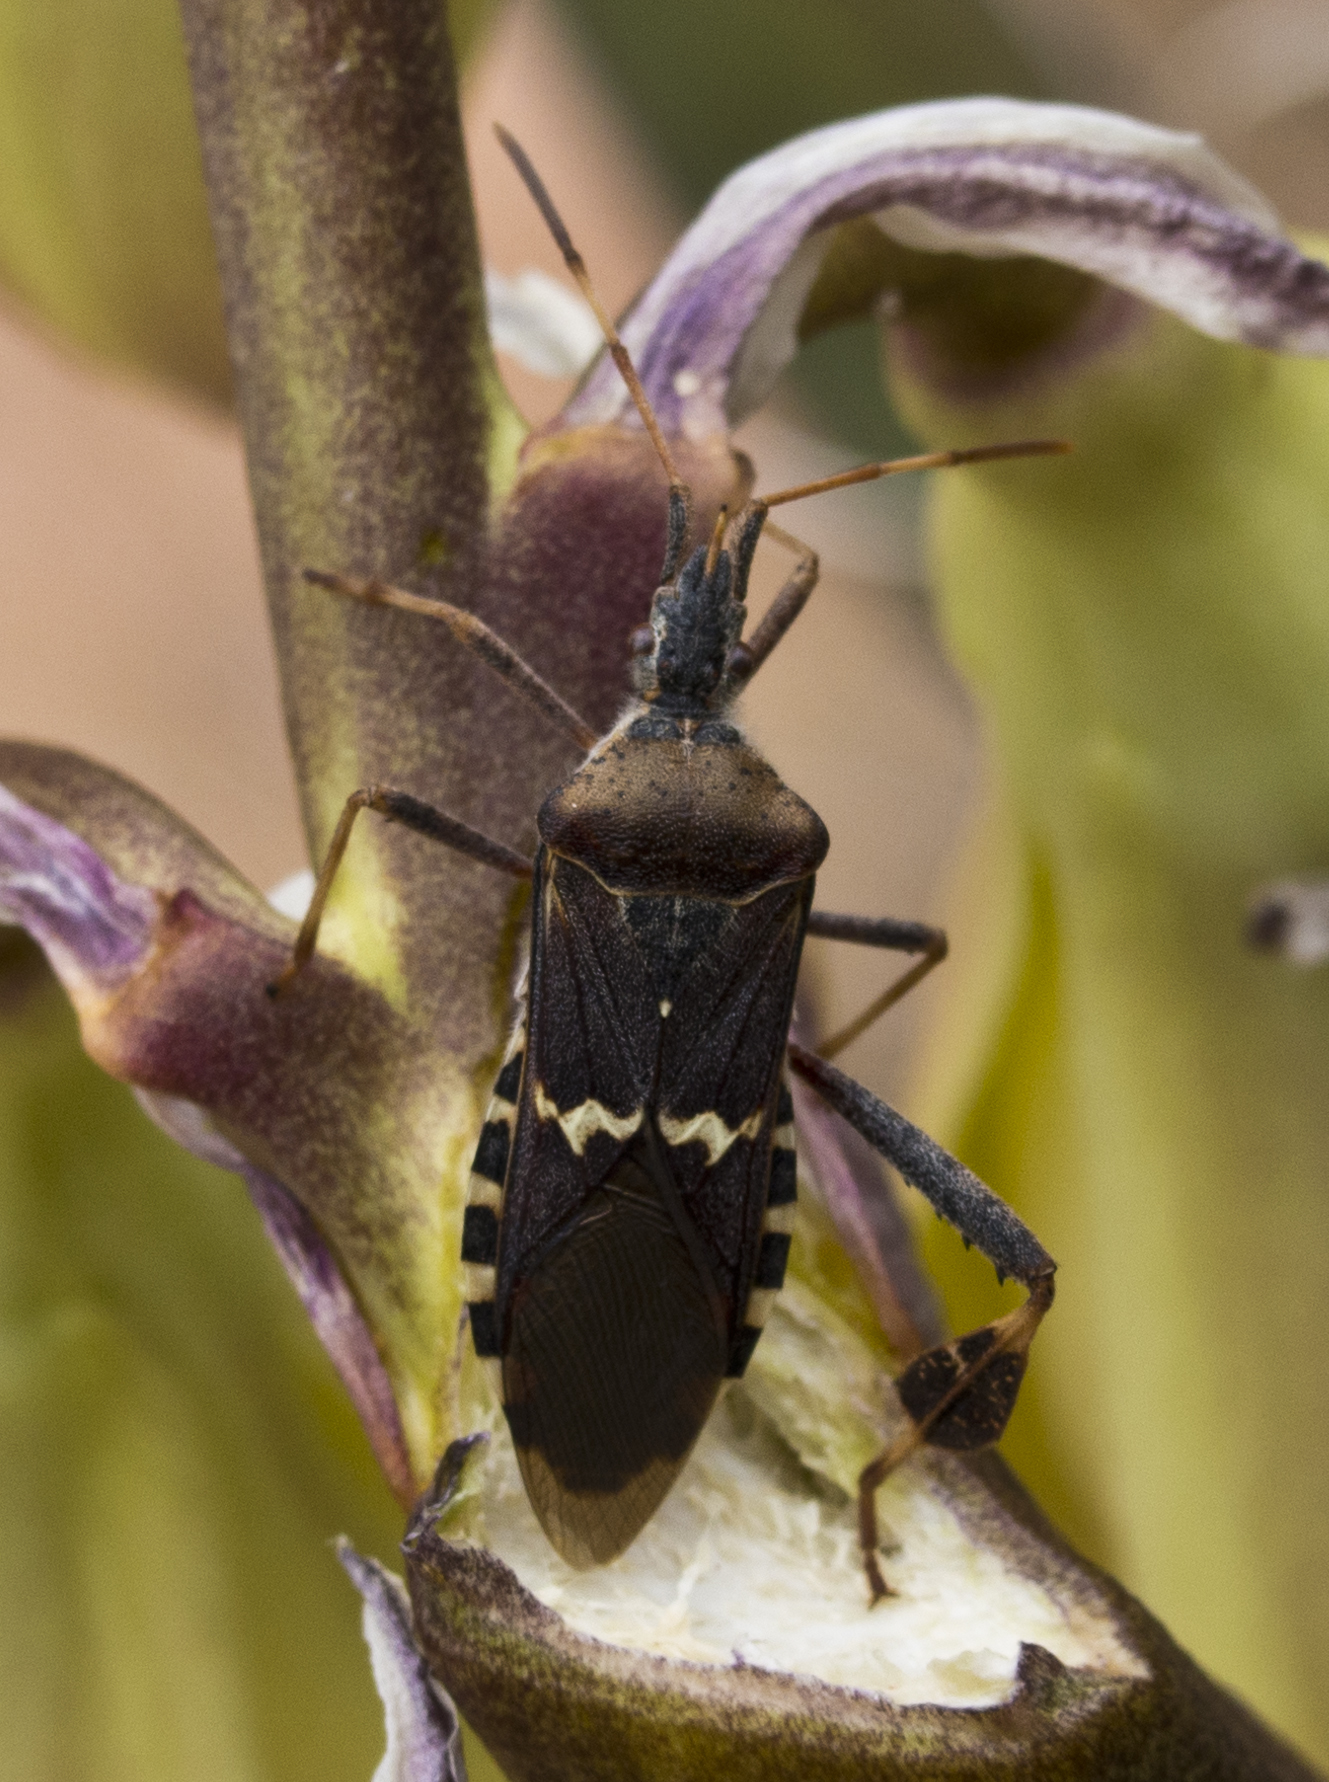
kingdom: Animalia
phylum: Arthropoda
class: Insecta
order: Hemiptera
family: Coreidae
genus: Leptoglossus
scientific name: Leptoglossus clypealis
